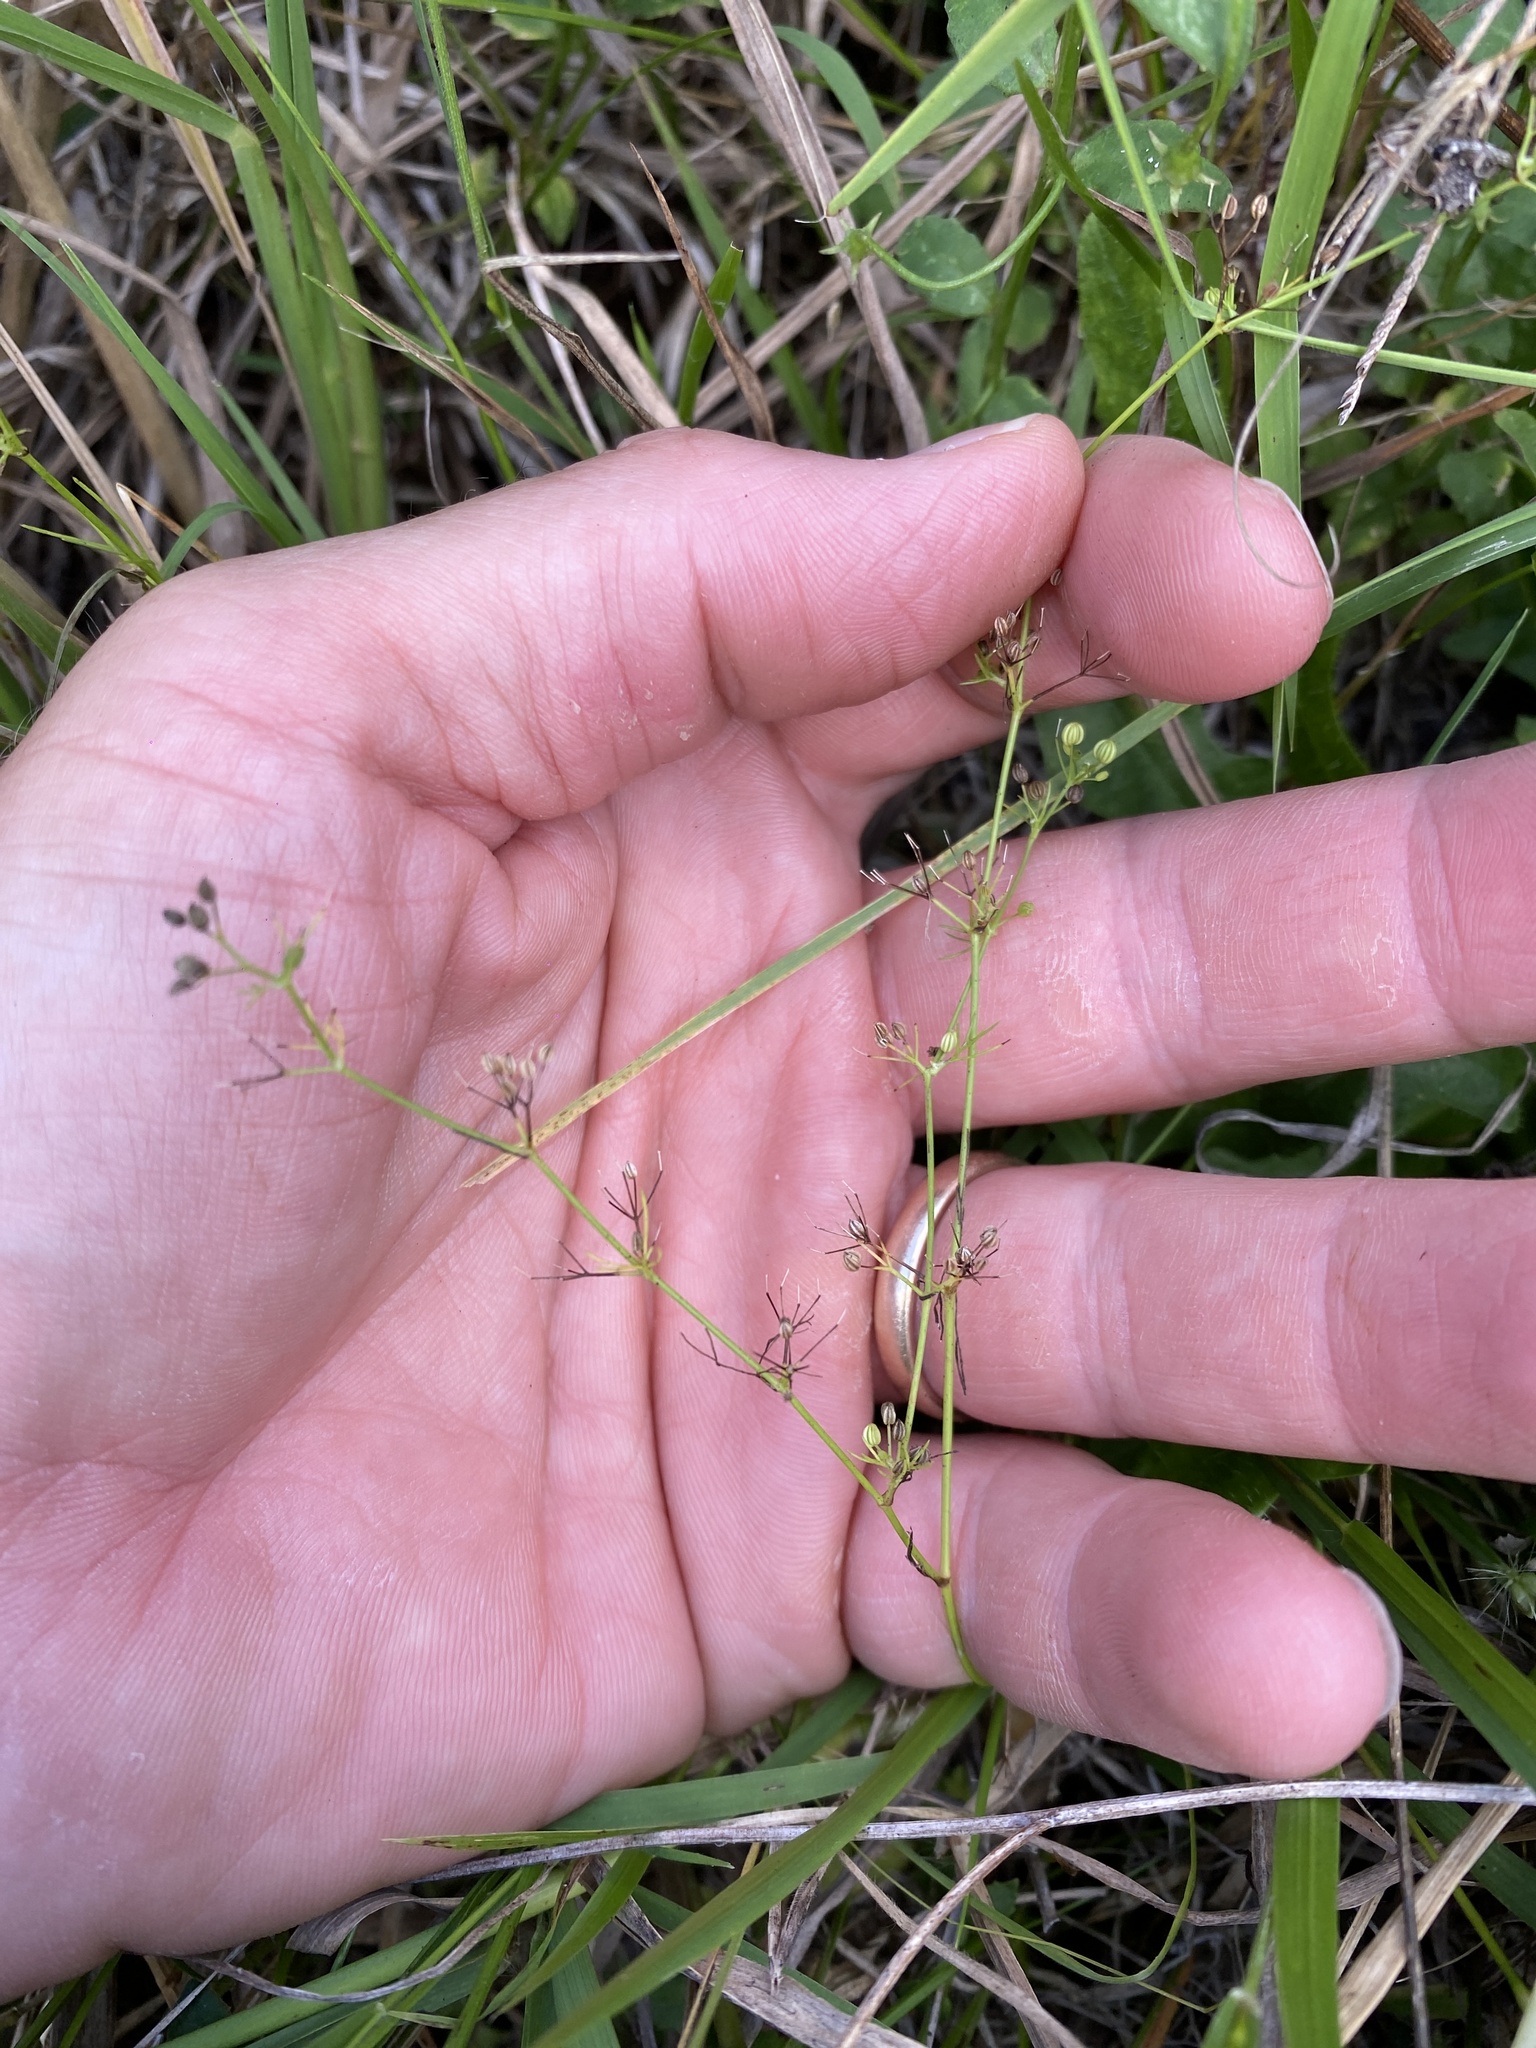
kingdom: Plantae
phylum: Tracheophyta
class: Magnoliopsida
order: Apiales
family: Apiaceae
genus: Cyclospermum
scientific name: Cyclospermum leptophyllum
